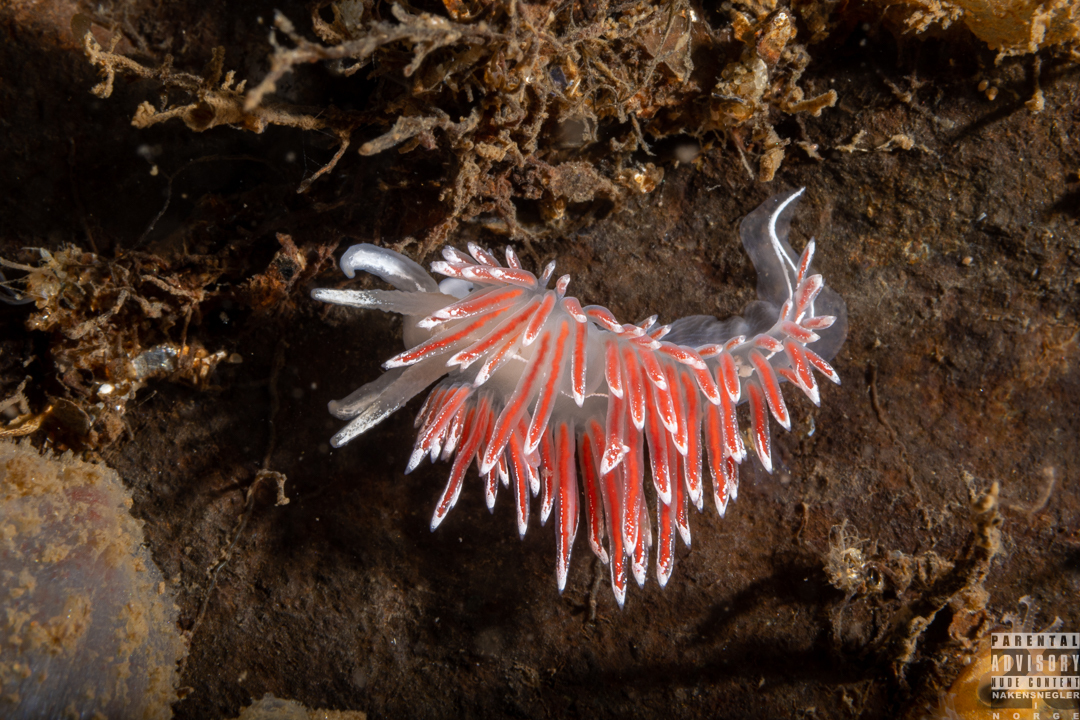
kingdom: Animalia
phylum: Mollusca
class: Gastropoda
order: Nudibranchia
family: Coryphellidae
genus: Coryphella
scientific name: Coryphella lineata
